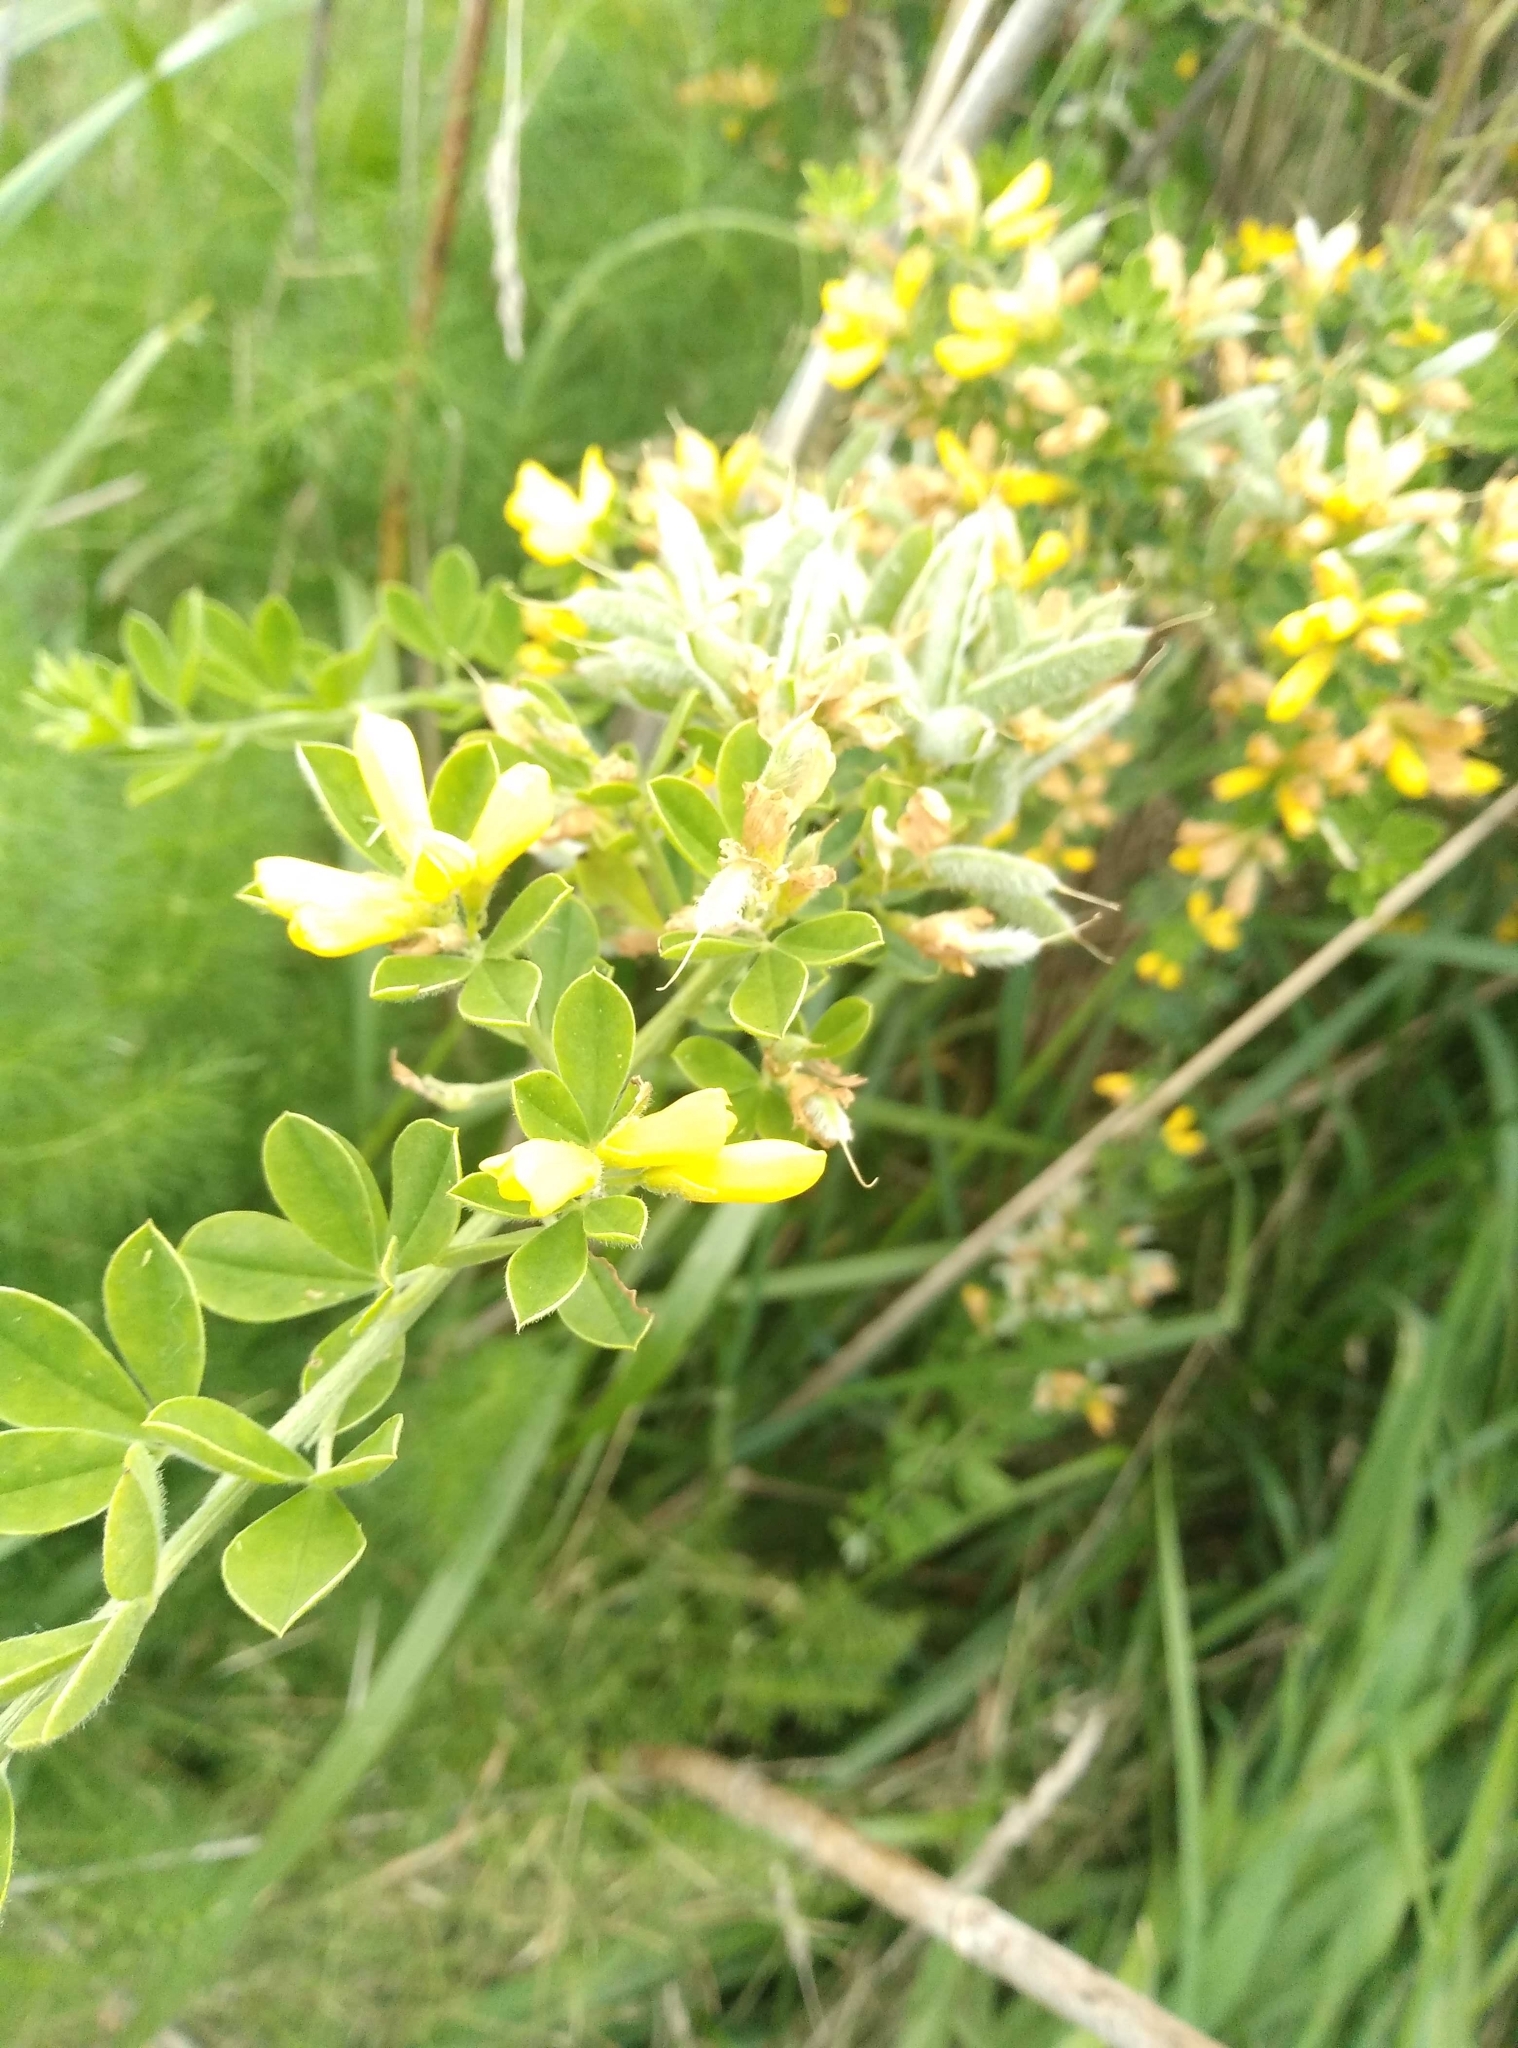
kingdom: Plantae
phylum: Tracheophyta
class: Magnoliopsida
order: Fabales
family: Fabaceae
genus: Genista
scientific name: Genista monspessulana
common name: Montpellier broom
